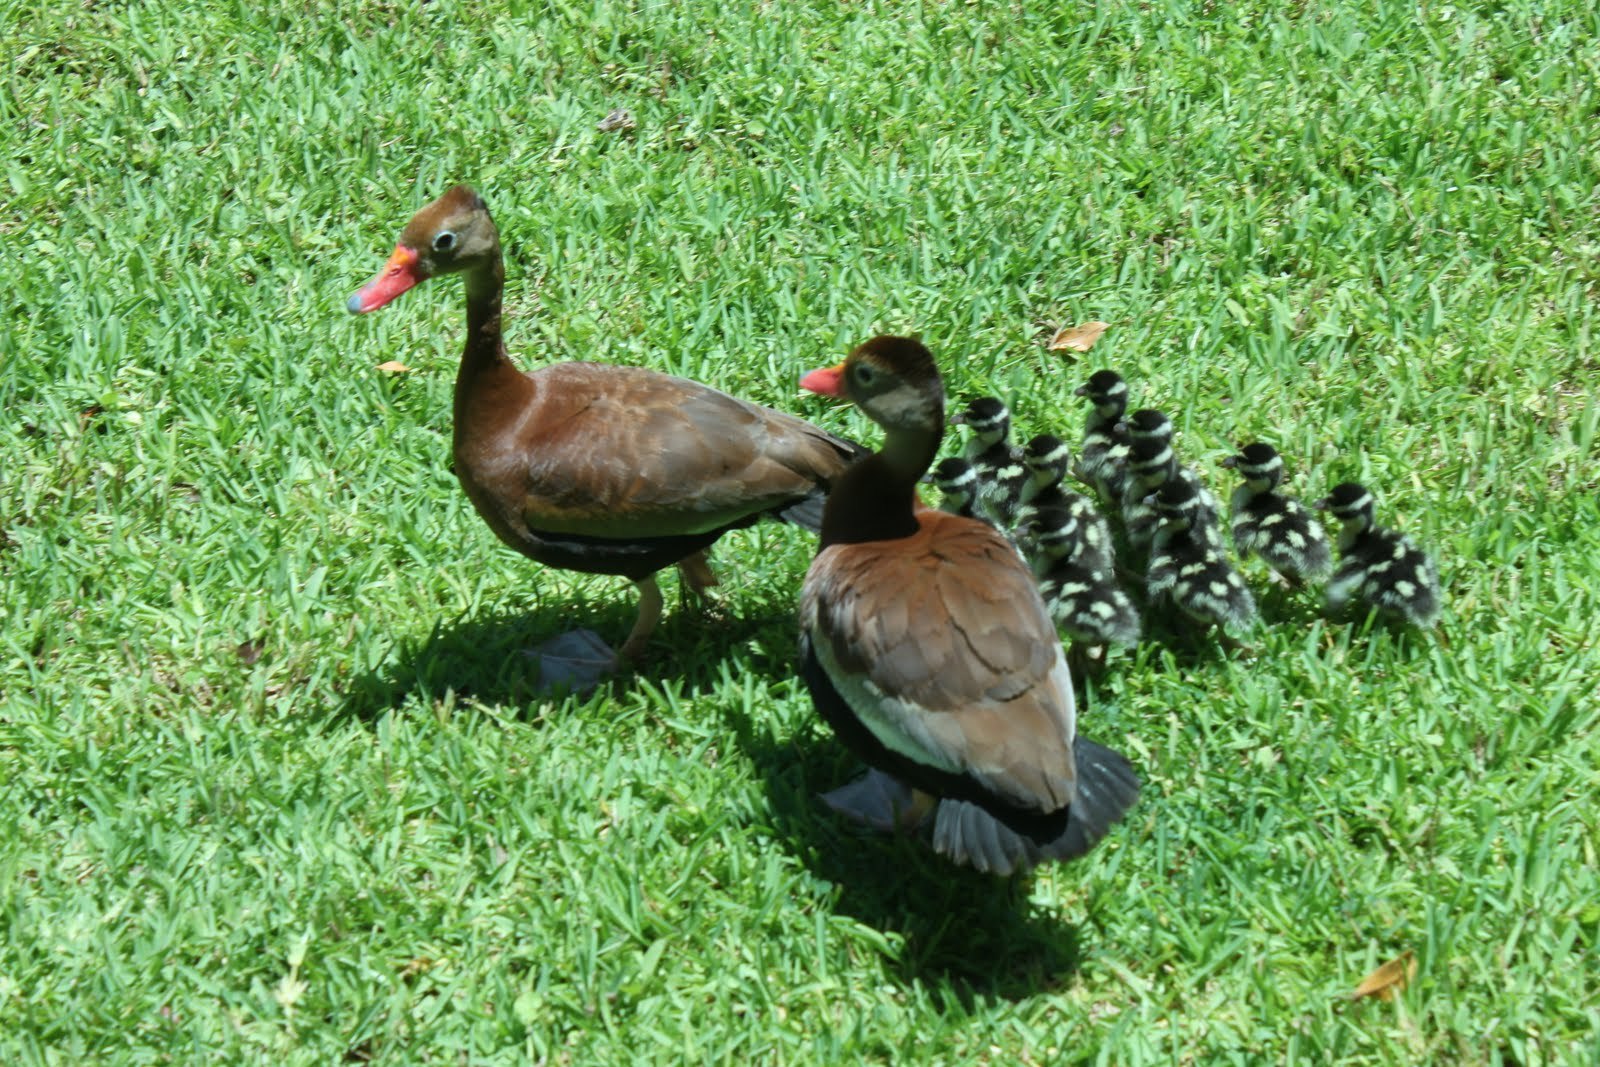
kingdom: Animalia
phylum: Chordata
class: Aves
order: Anseriformes
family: Anatidae
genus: Dendrocygna
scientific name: Dendrocygna autumnalis
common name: Black-bellied whistling duck
